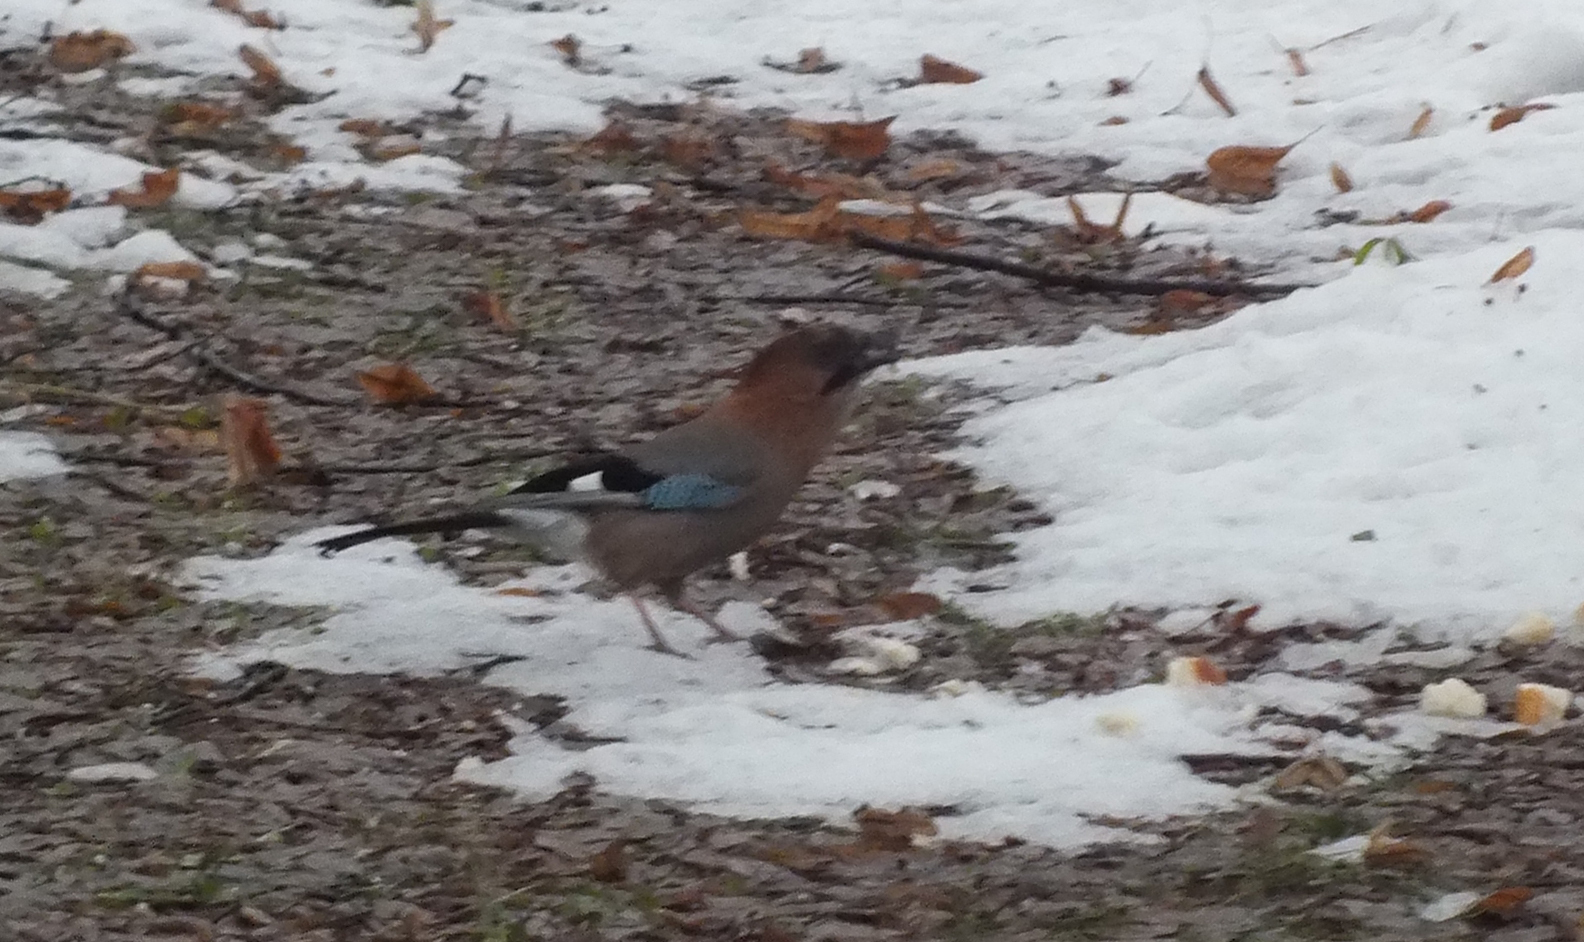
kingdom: Animalia
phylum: Chordata
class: Aves
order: Passeriformes
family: Corvidae
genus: Garrulus
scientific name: Garrulus glandarius
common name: Eurasian jay
